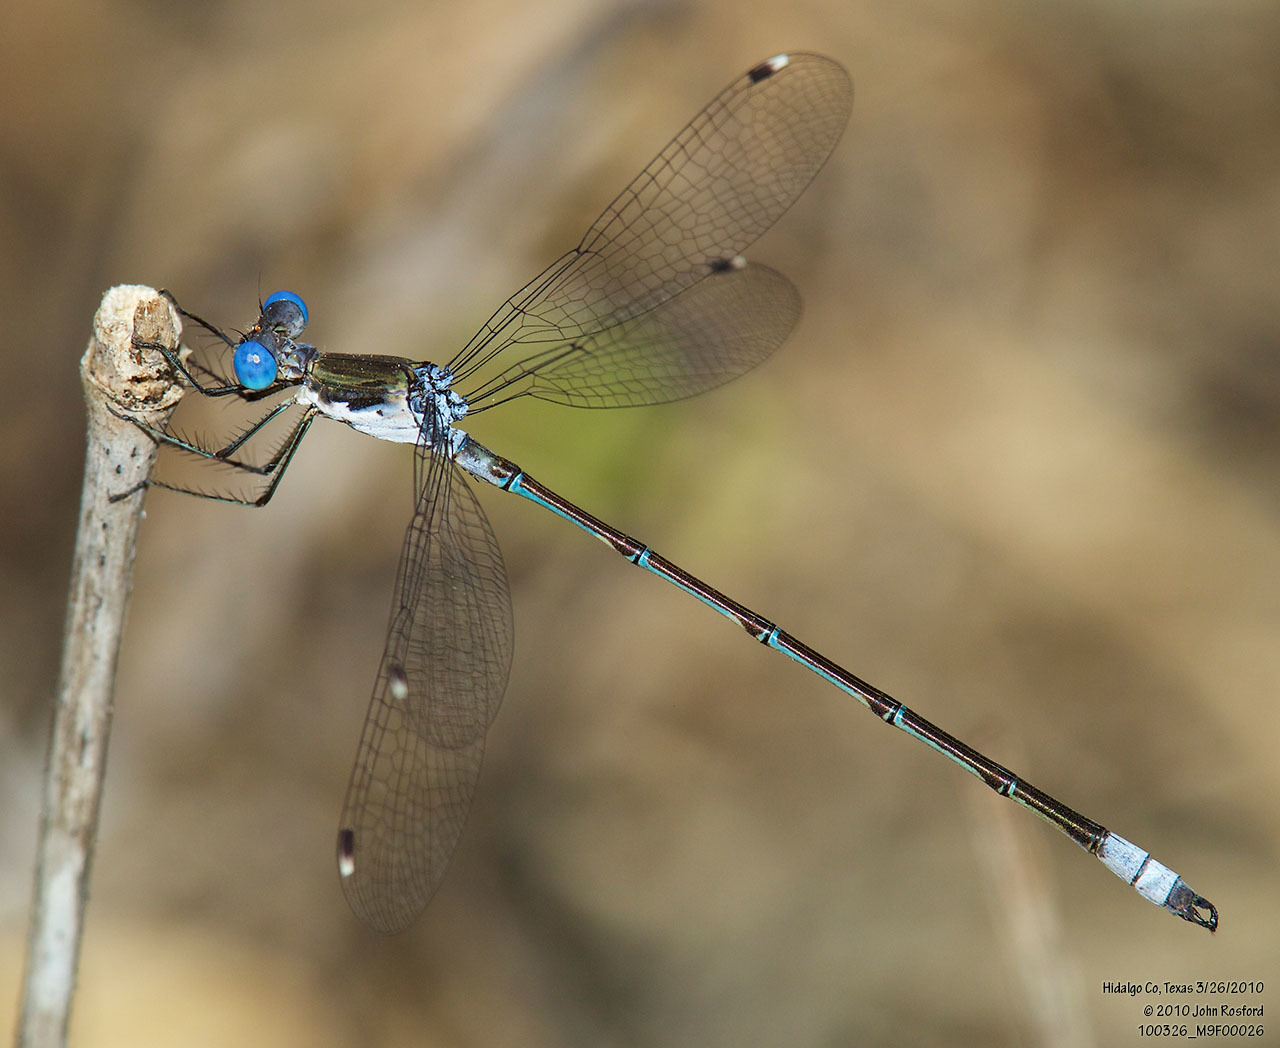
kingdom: Animalia
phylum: Arthropoda
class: Insecta
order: Odonata
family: Lestidae
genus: Lestes
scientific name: Lestes sigma
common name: Chalky spreadwing
